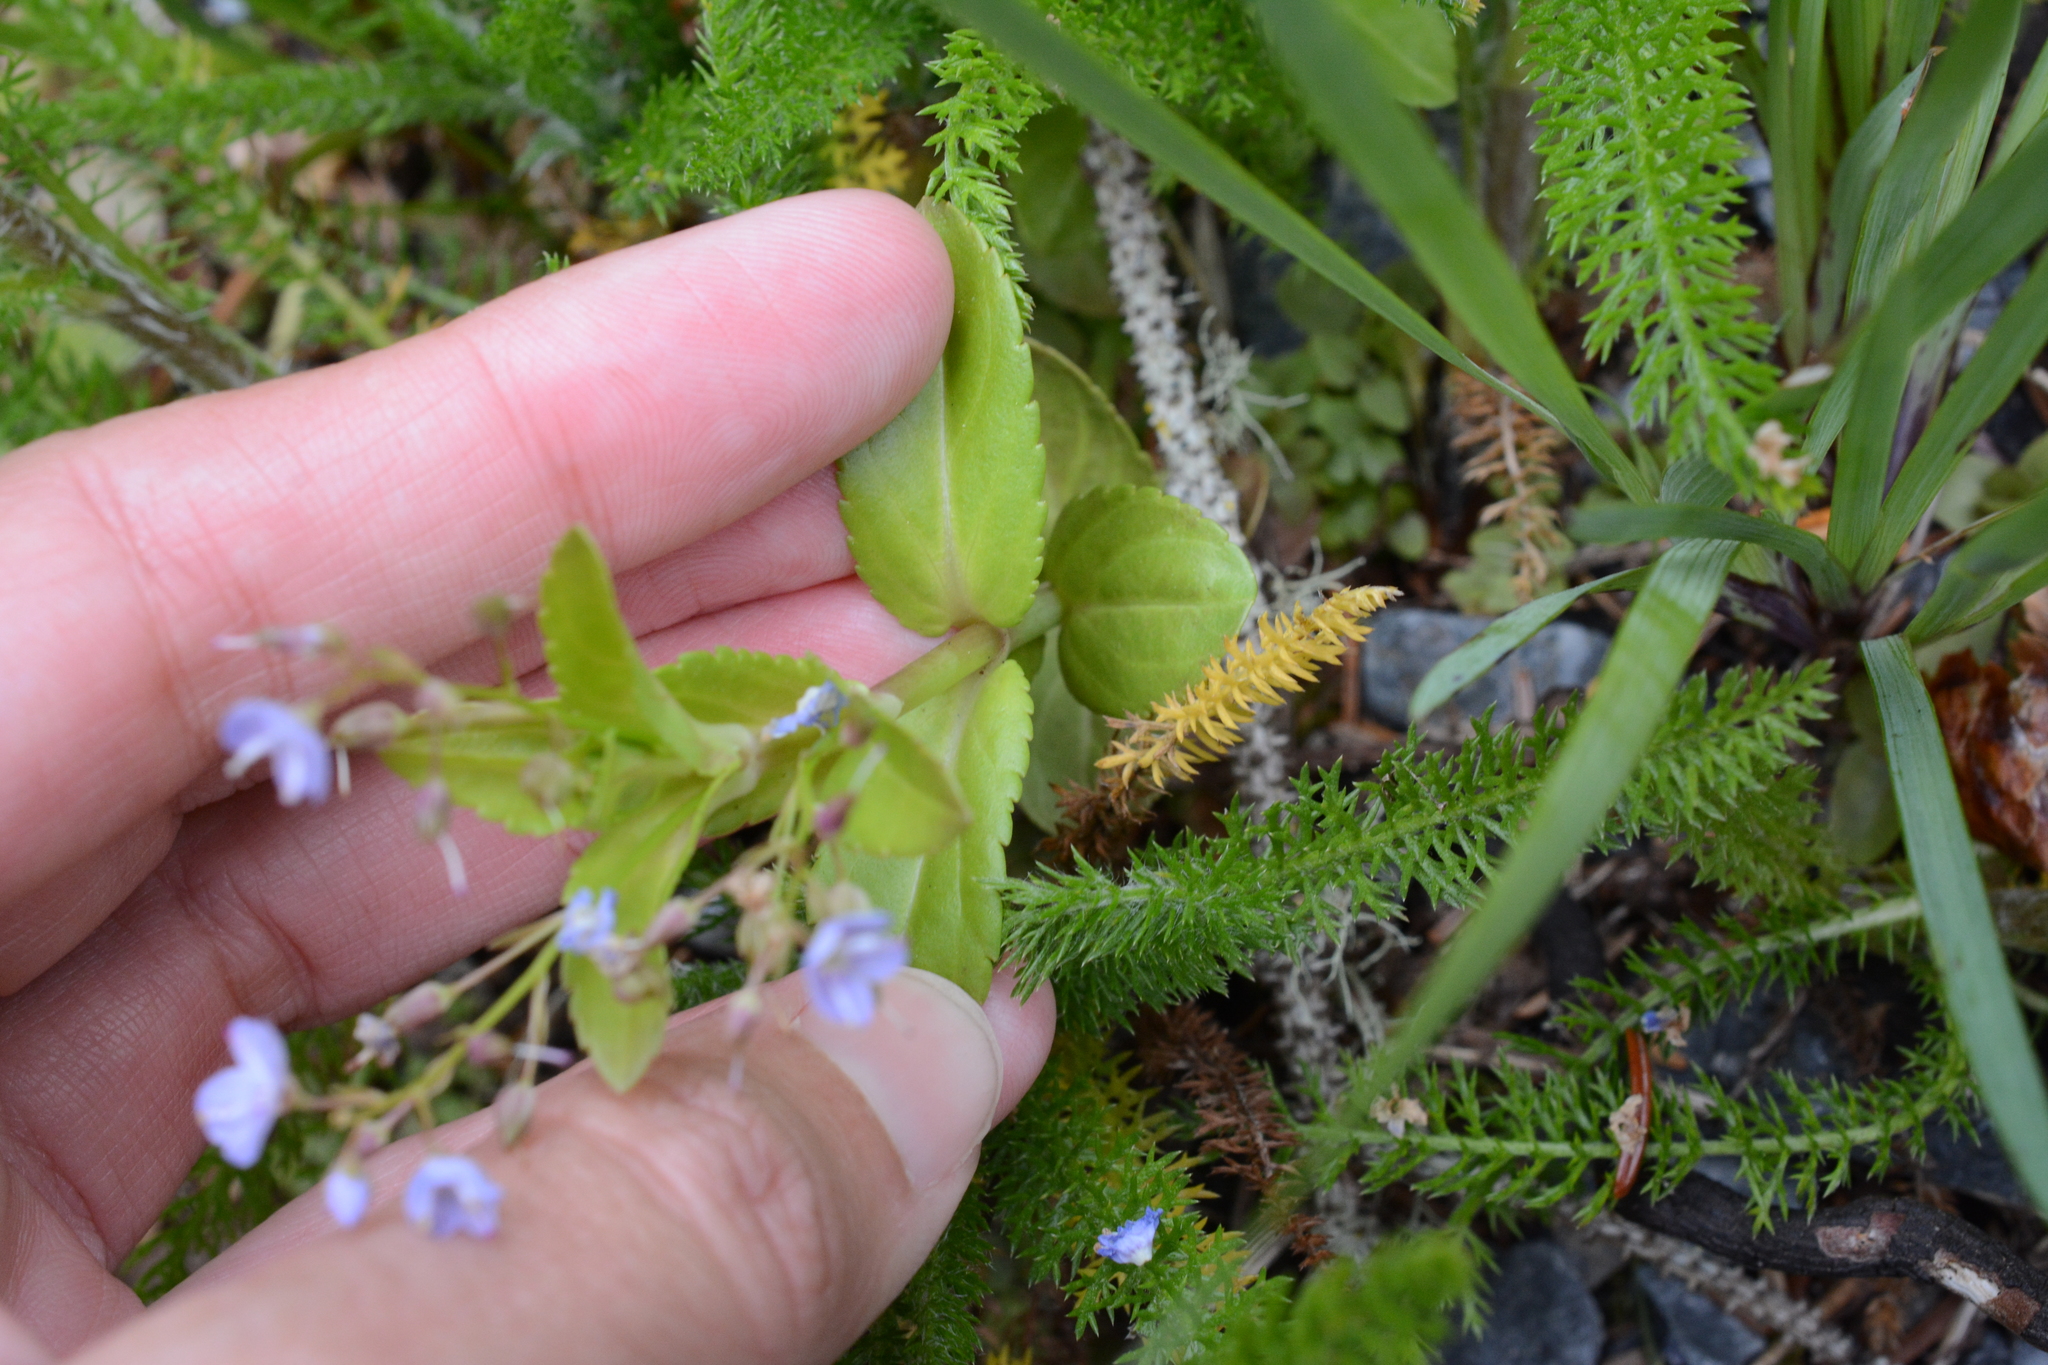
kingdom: Plantae
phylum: Tracheophyta
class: Magnoliopsida
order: Lamiales
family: Plantaginaceae
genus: Veronica
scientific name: Veronica americana
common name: American brooklime
